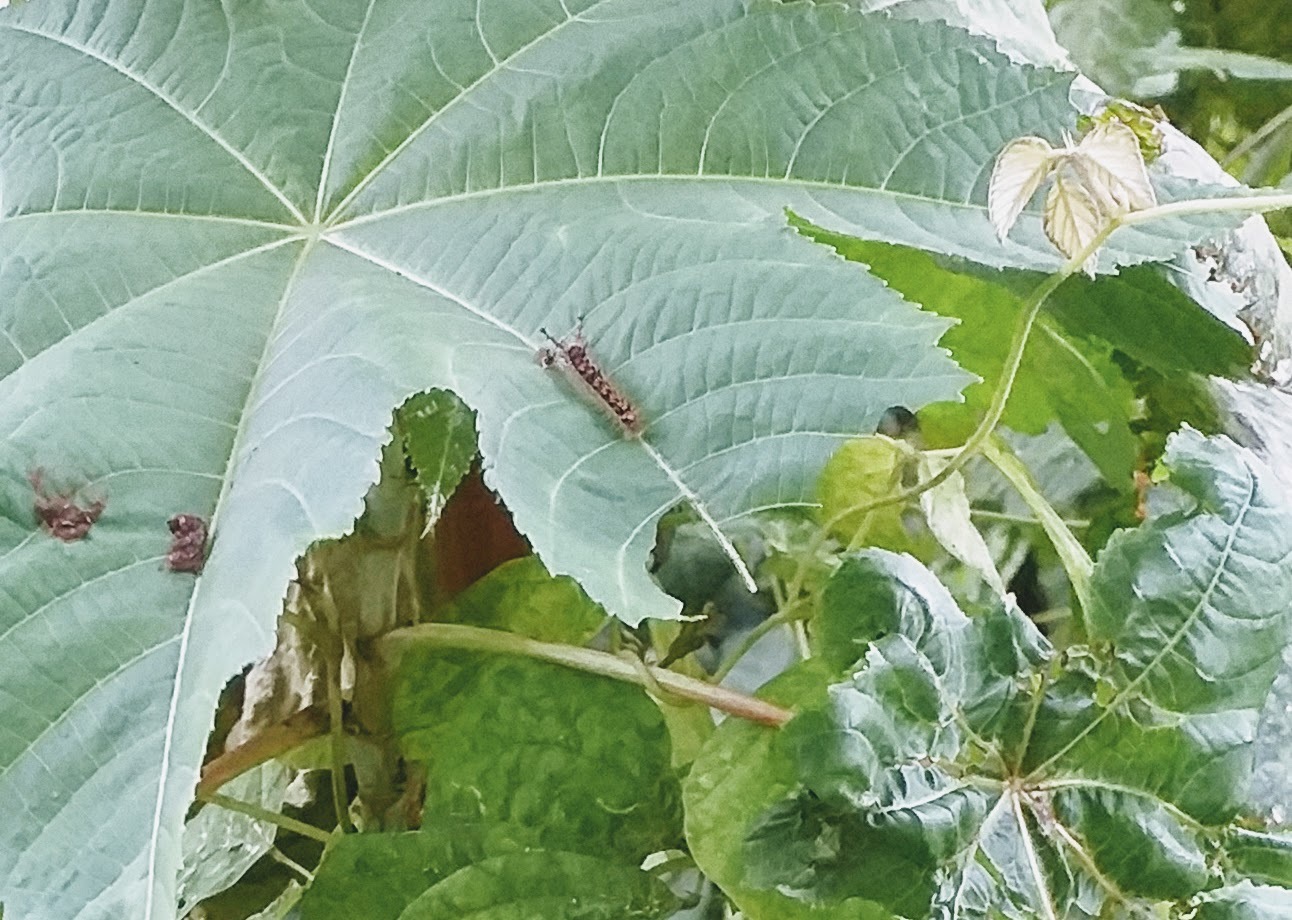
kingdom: Animalia
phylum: Arthropoda
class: Insecta
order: Lepidoptera
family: Nymphalidae
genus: Ariadne
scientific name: Ariadne merione
